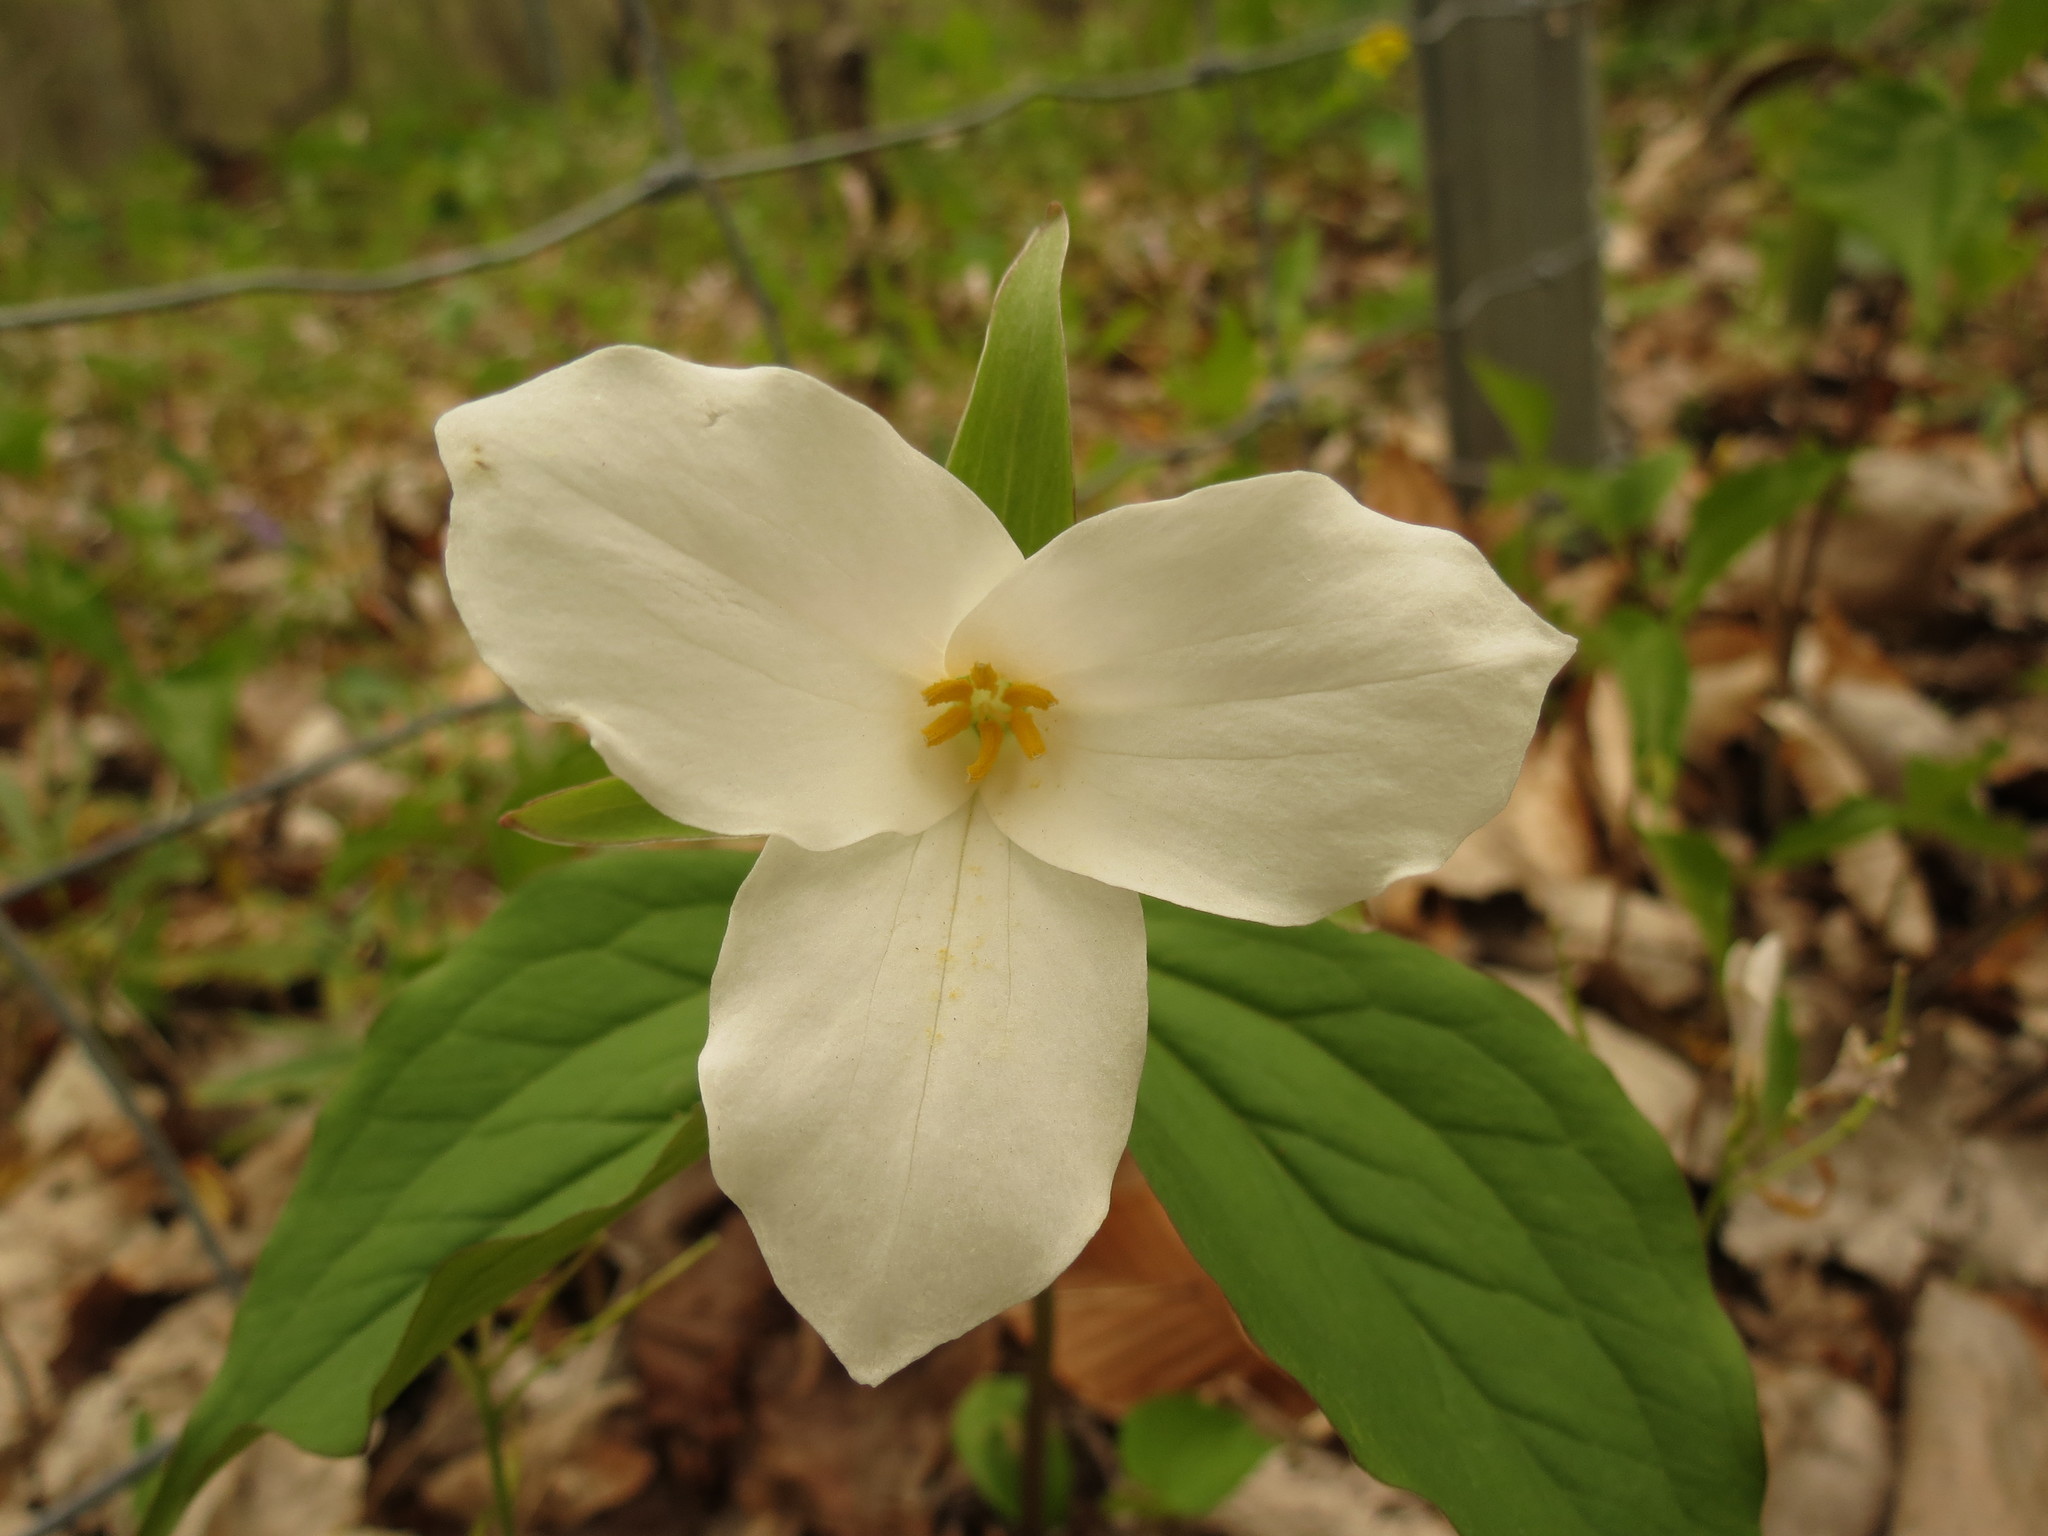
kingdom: Plantae
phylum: Tracheophyta
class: Liliopsida
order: Liliales
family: Melanthiaceae
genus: Trillium
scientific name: Trillium grandiflorum
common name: Great white trillium
